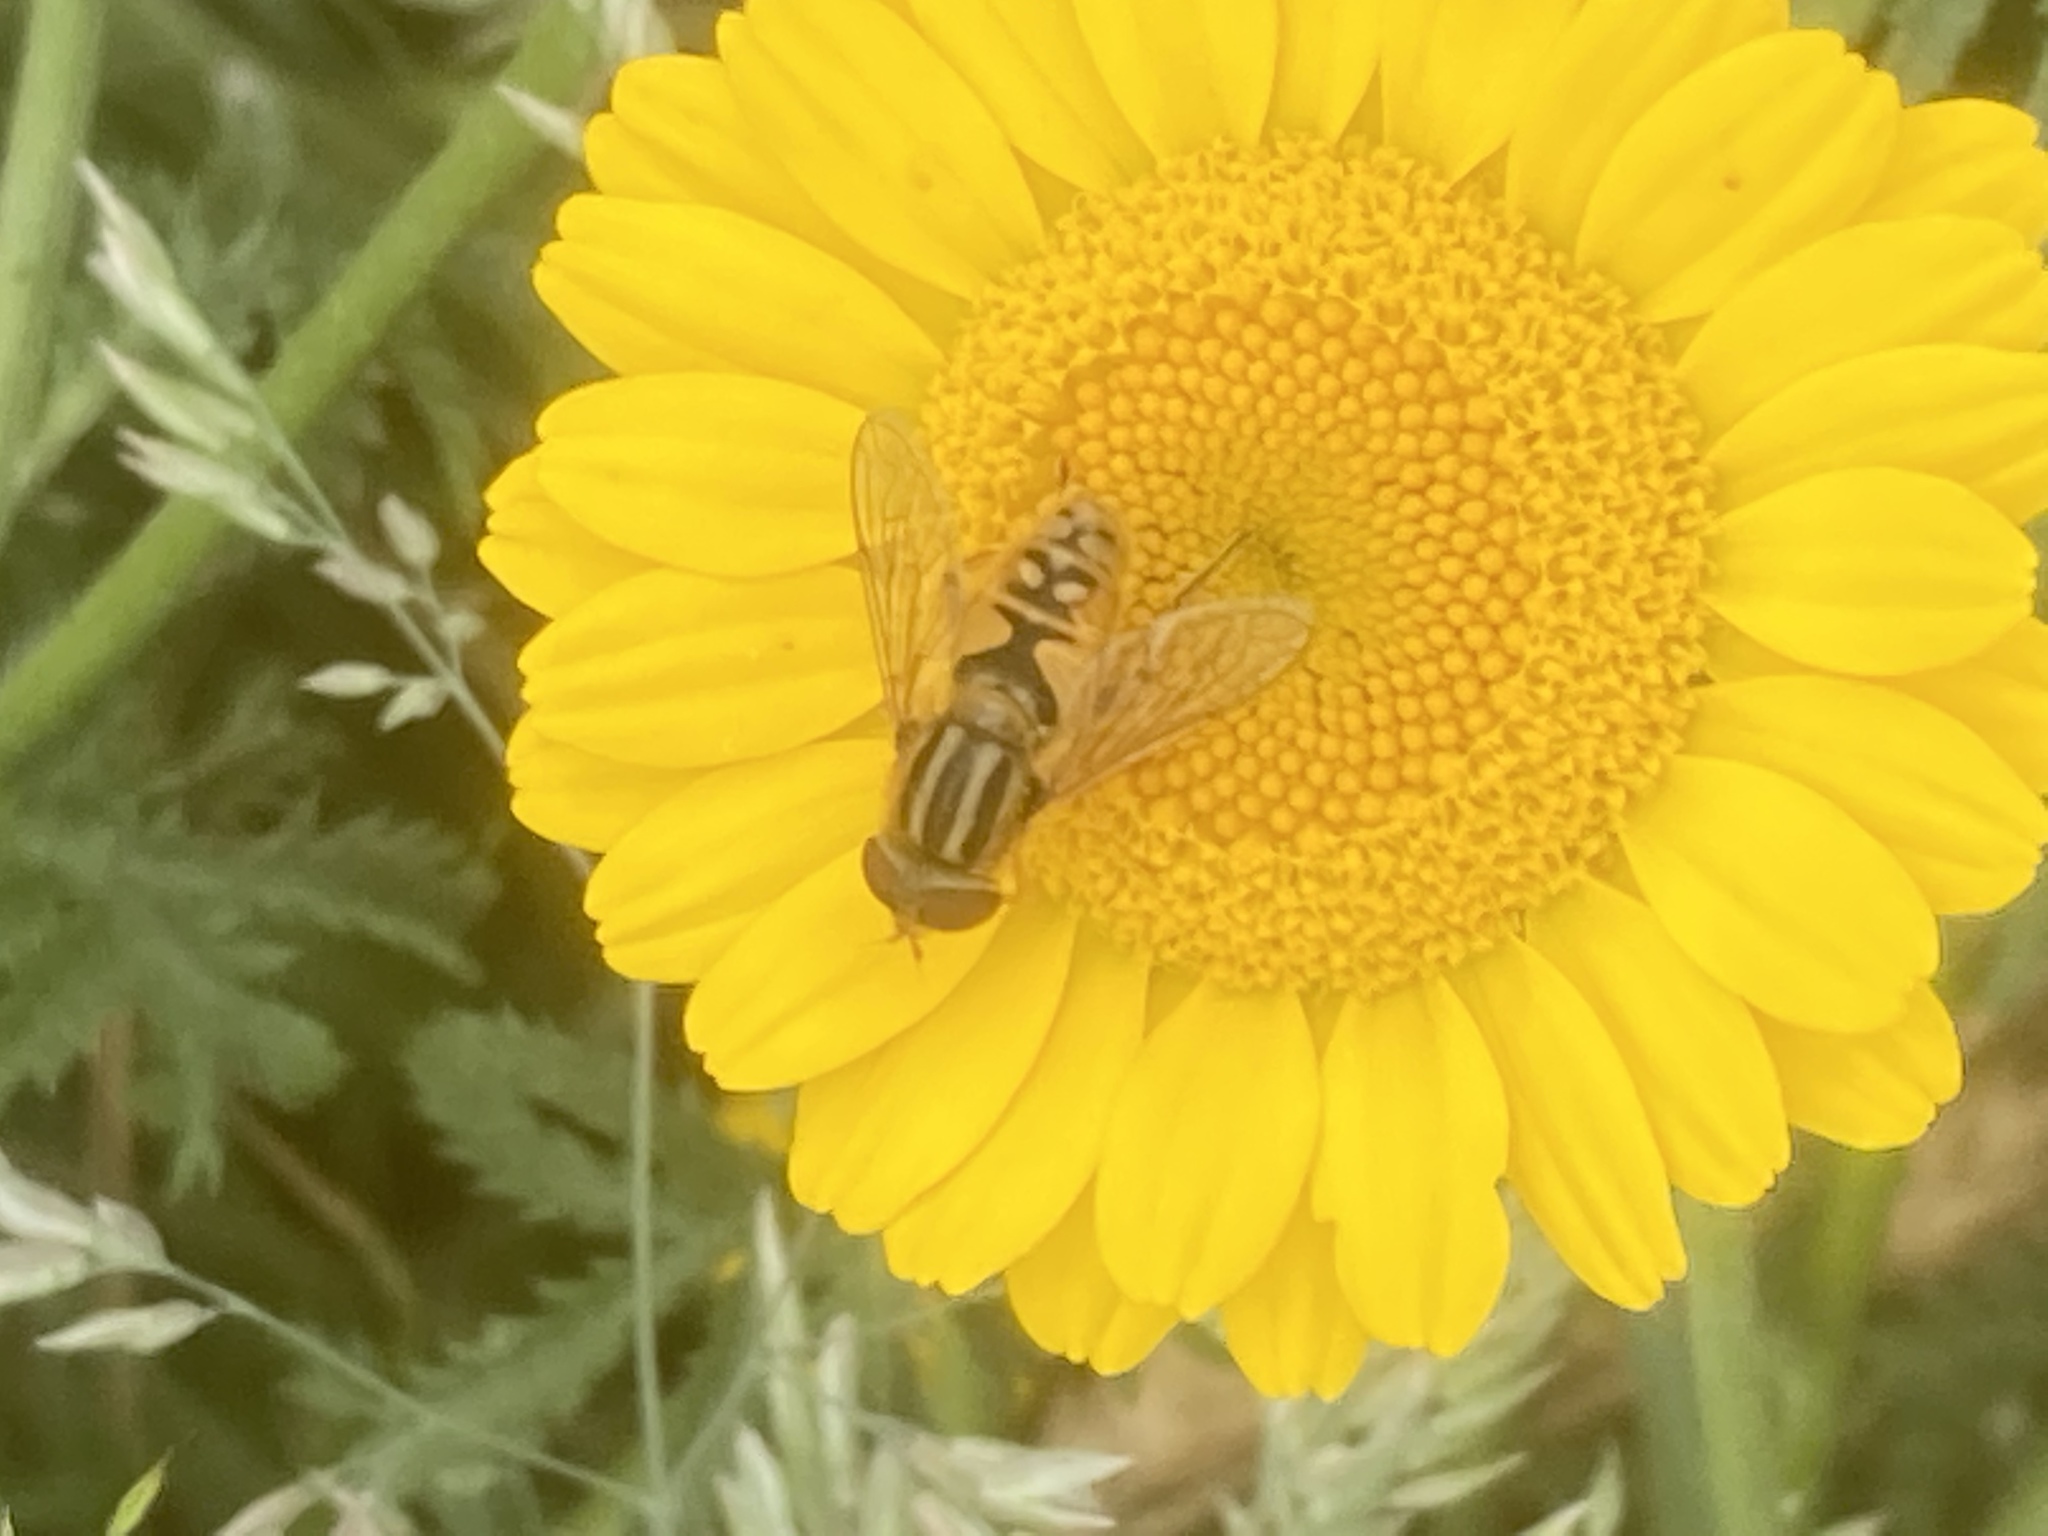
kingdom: Animalia
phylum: Arthropoda
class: Insecta
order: Diptera
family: Syrphidae
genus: Helophilus
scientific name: Helophilus trivittatus
